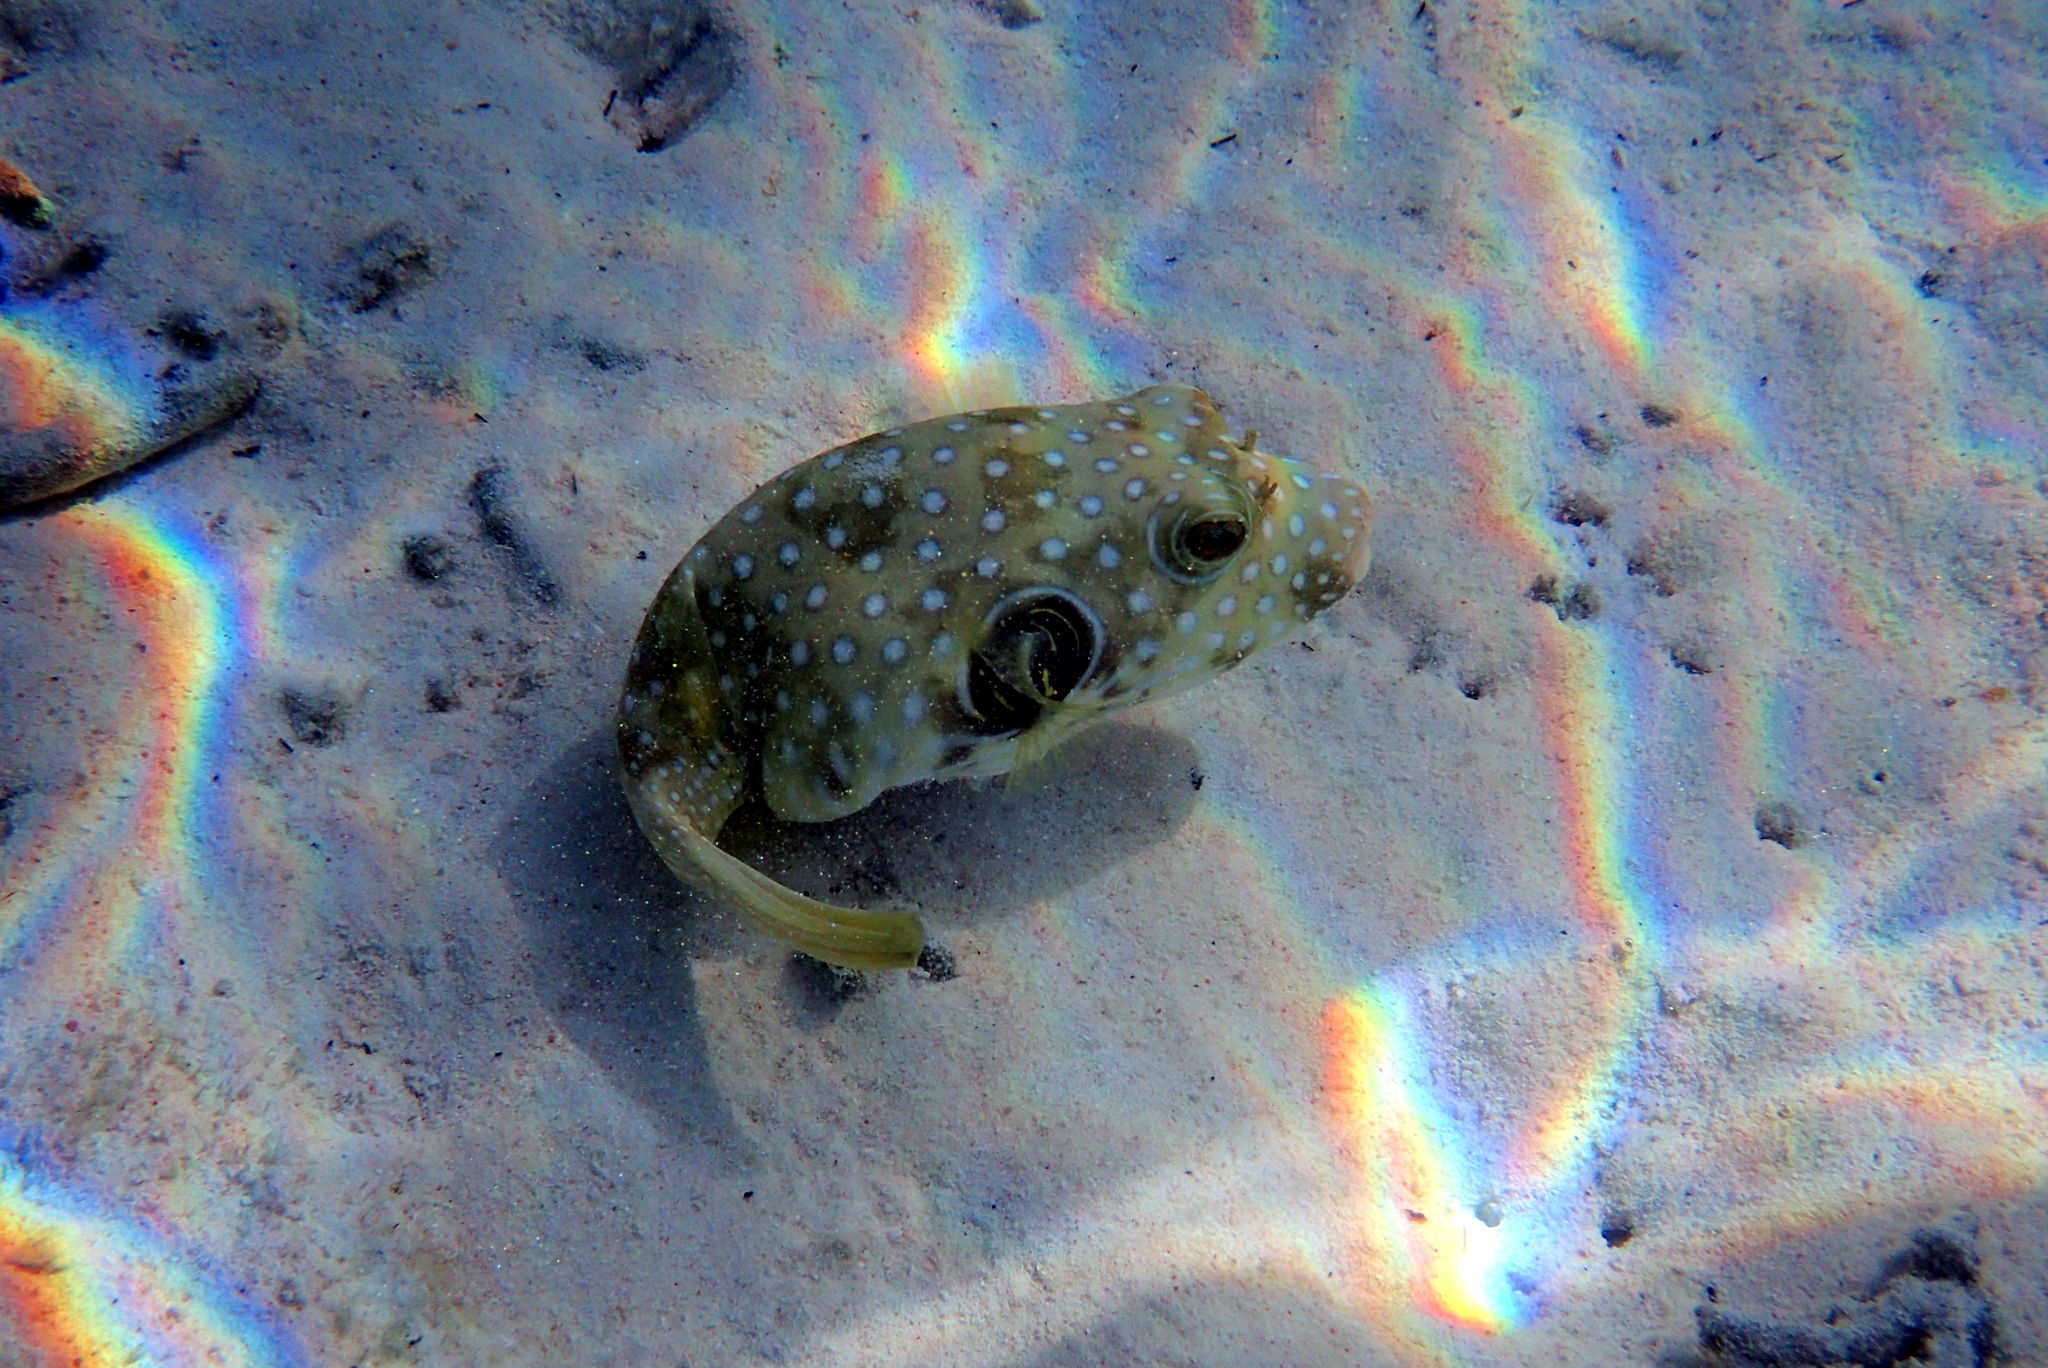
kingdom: Animalia
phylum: Chordata
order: Tetraodontiformes
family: Tetraodontidae
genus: Arothron
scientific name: Arothron hispidus
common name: Stripebelly puffer
